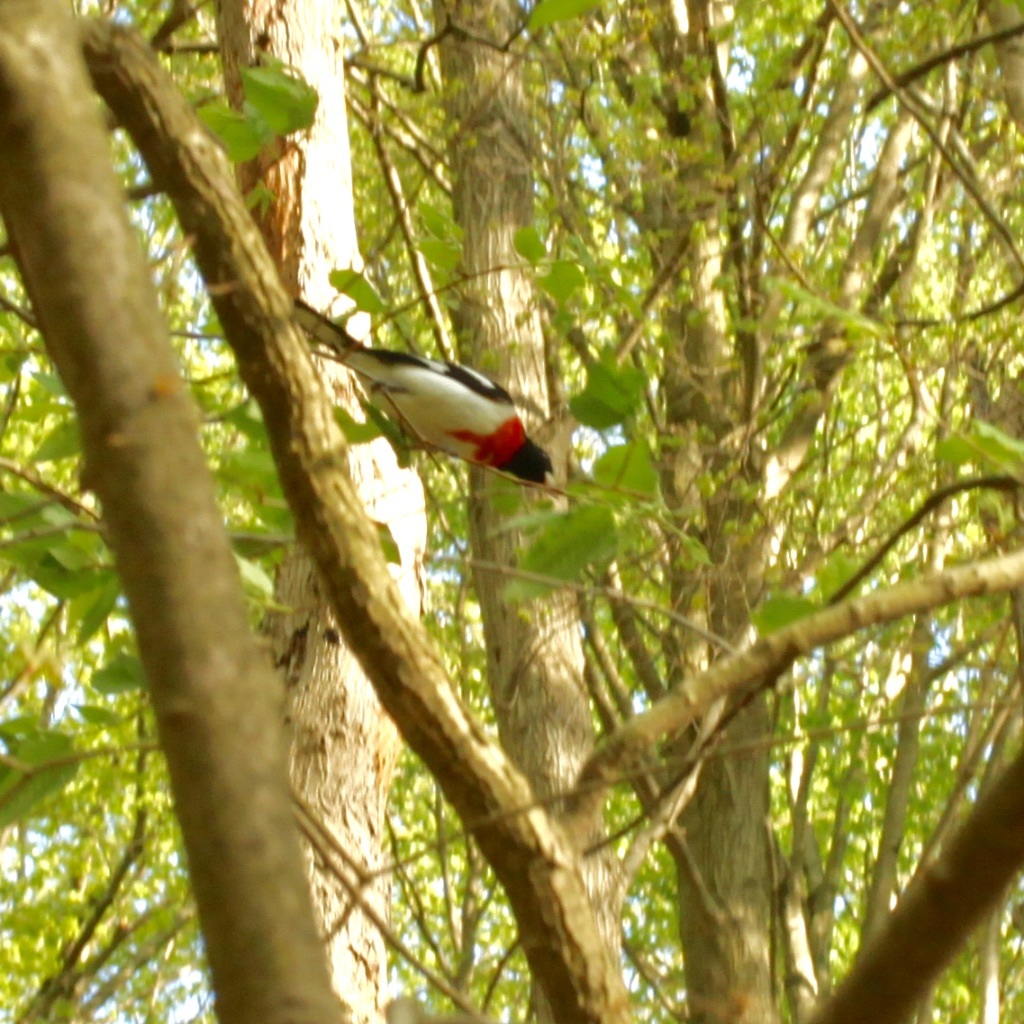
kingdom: Animalia
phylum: Chordata
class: Aves
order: Passeriformes
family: Cardinalidae
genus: Pheucticus
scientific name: Pheucticus ludovicianus
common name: Rose-breasted grosbeak
